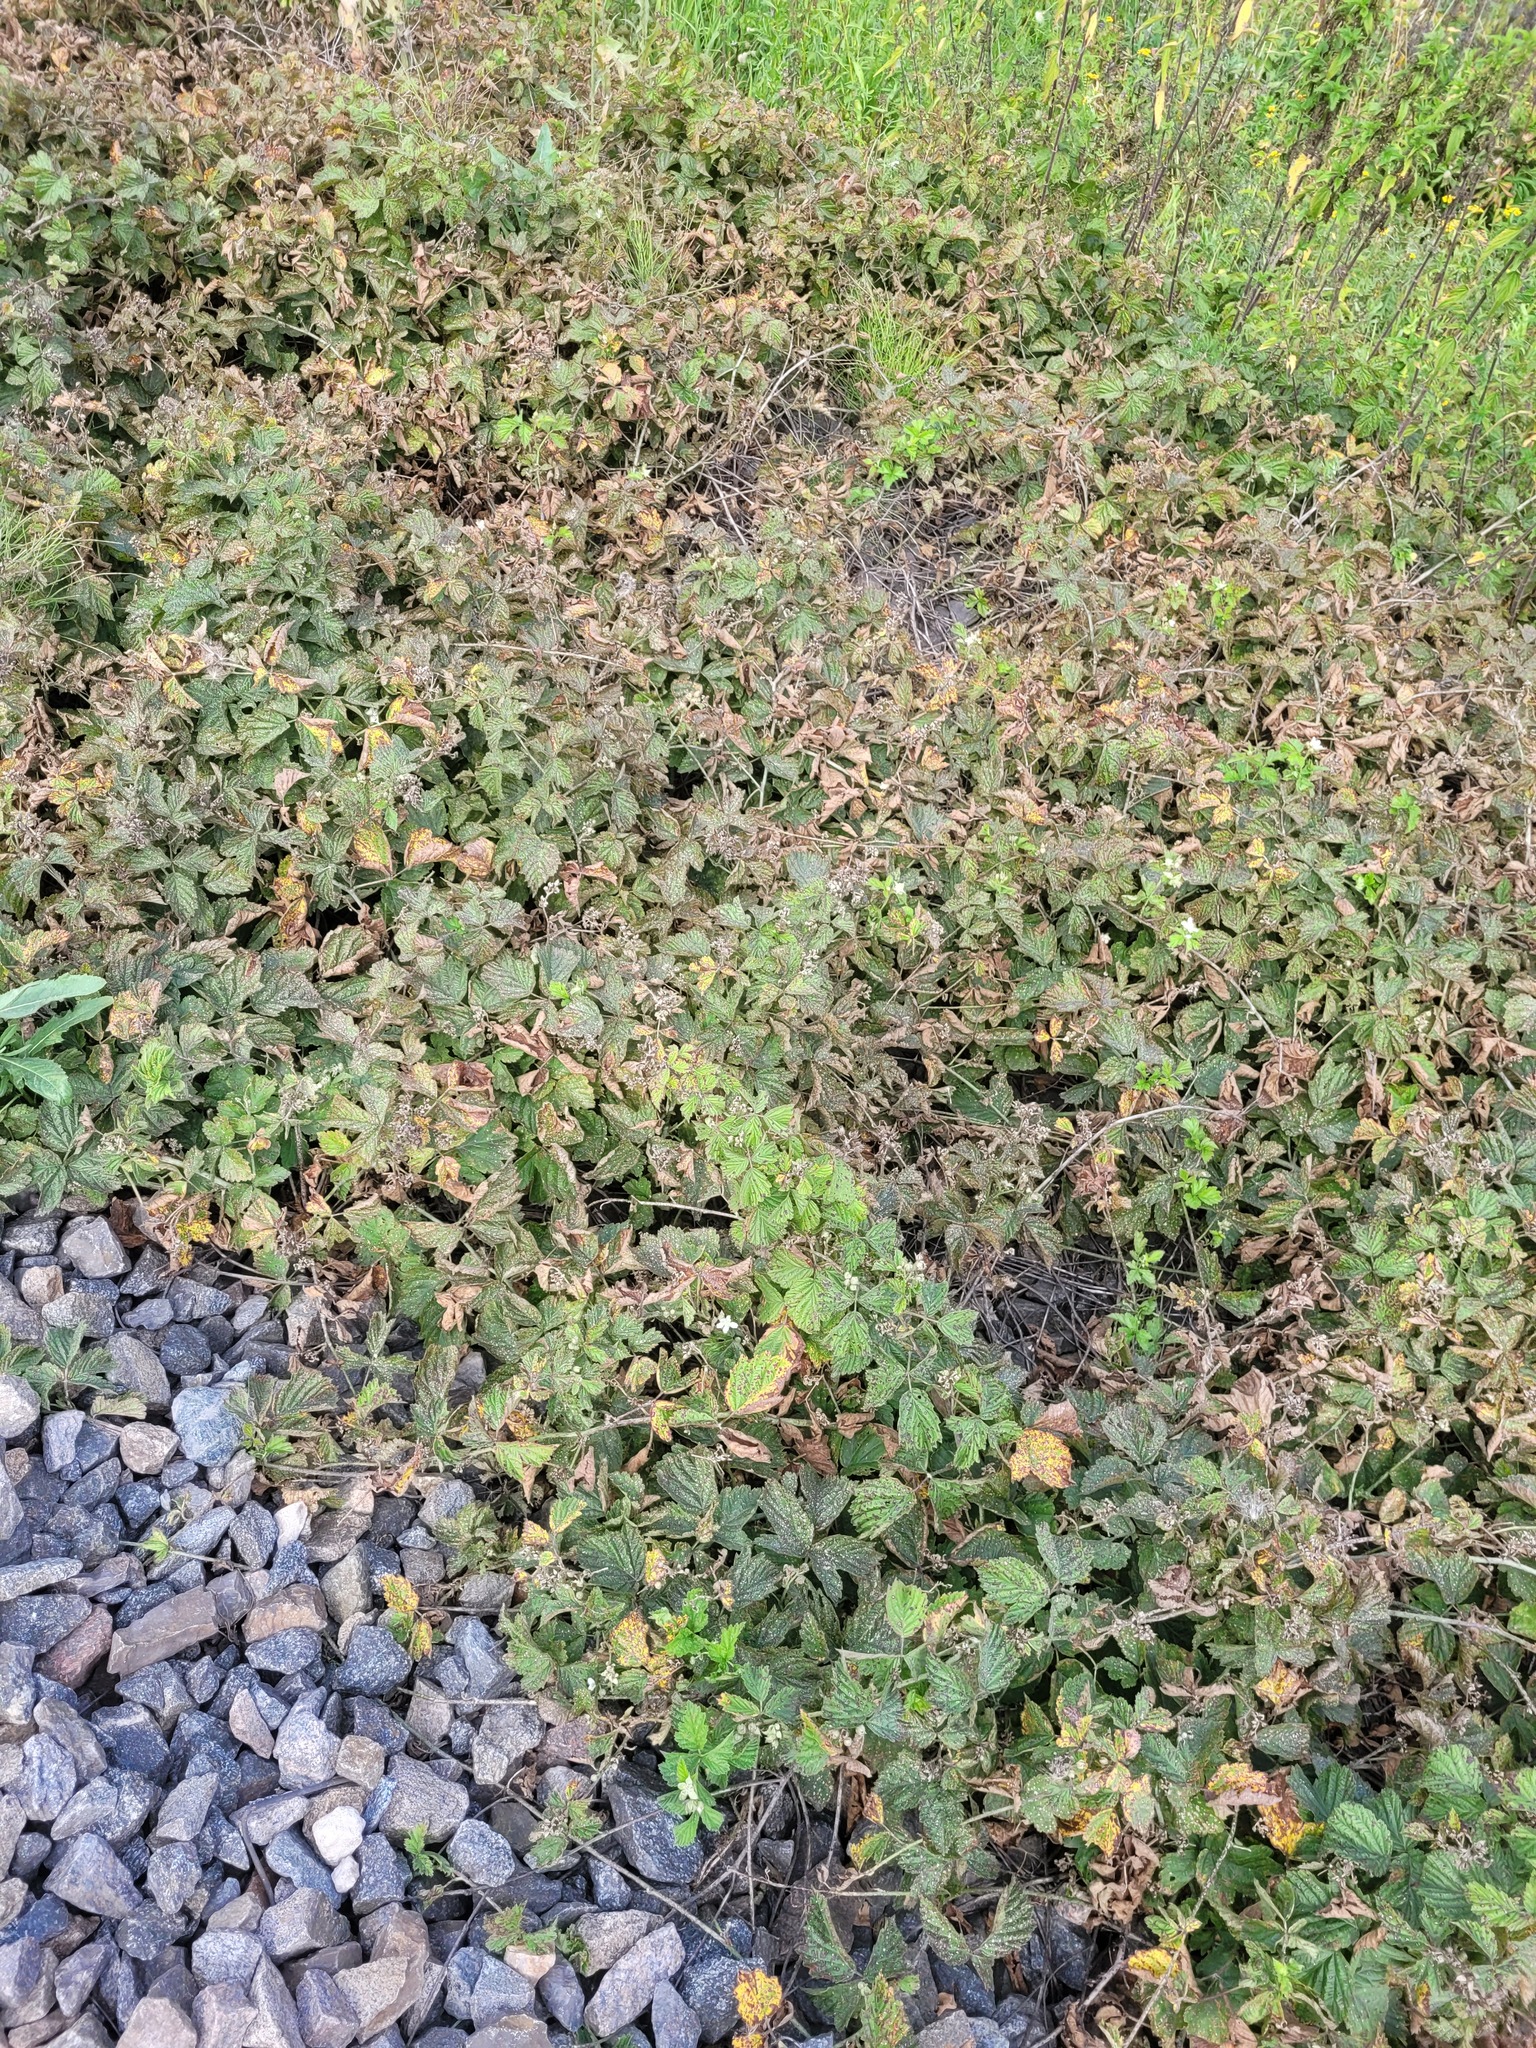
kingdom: Plantae
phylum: Tracheophyta
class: Magnoliopsida
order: Rosales
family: Rosaceae
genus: Rubus
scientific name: Rubus caesius
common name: Dewberry
